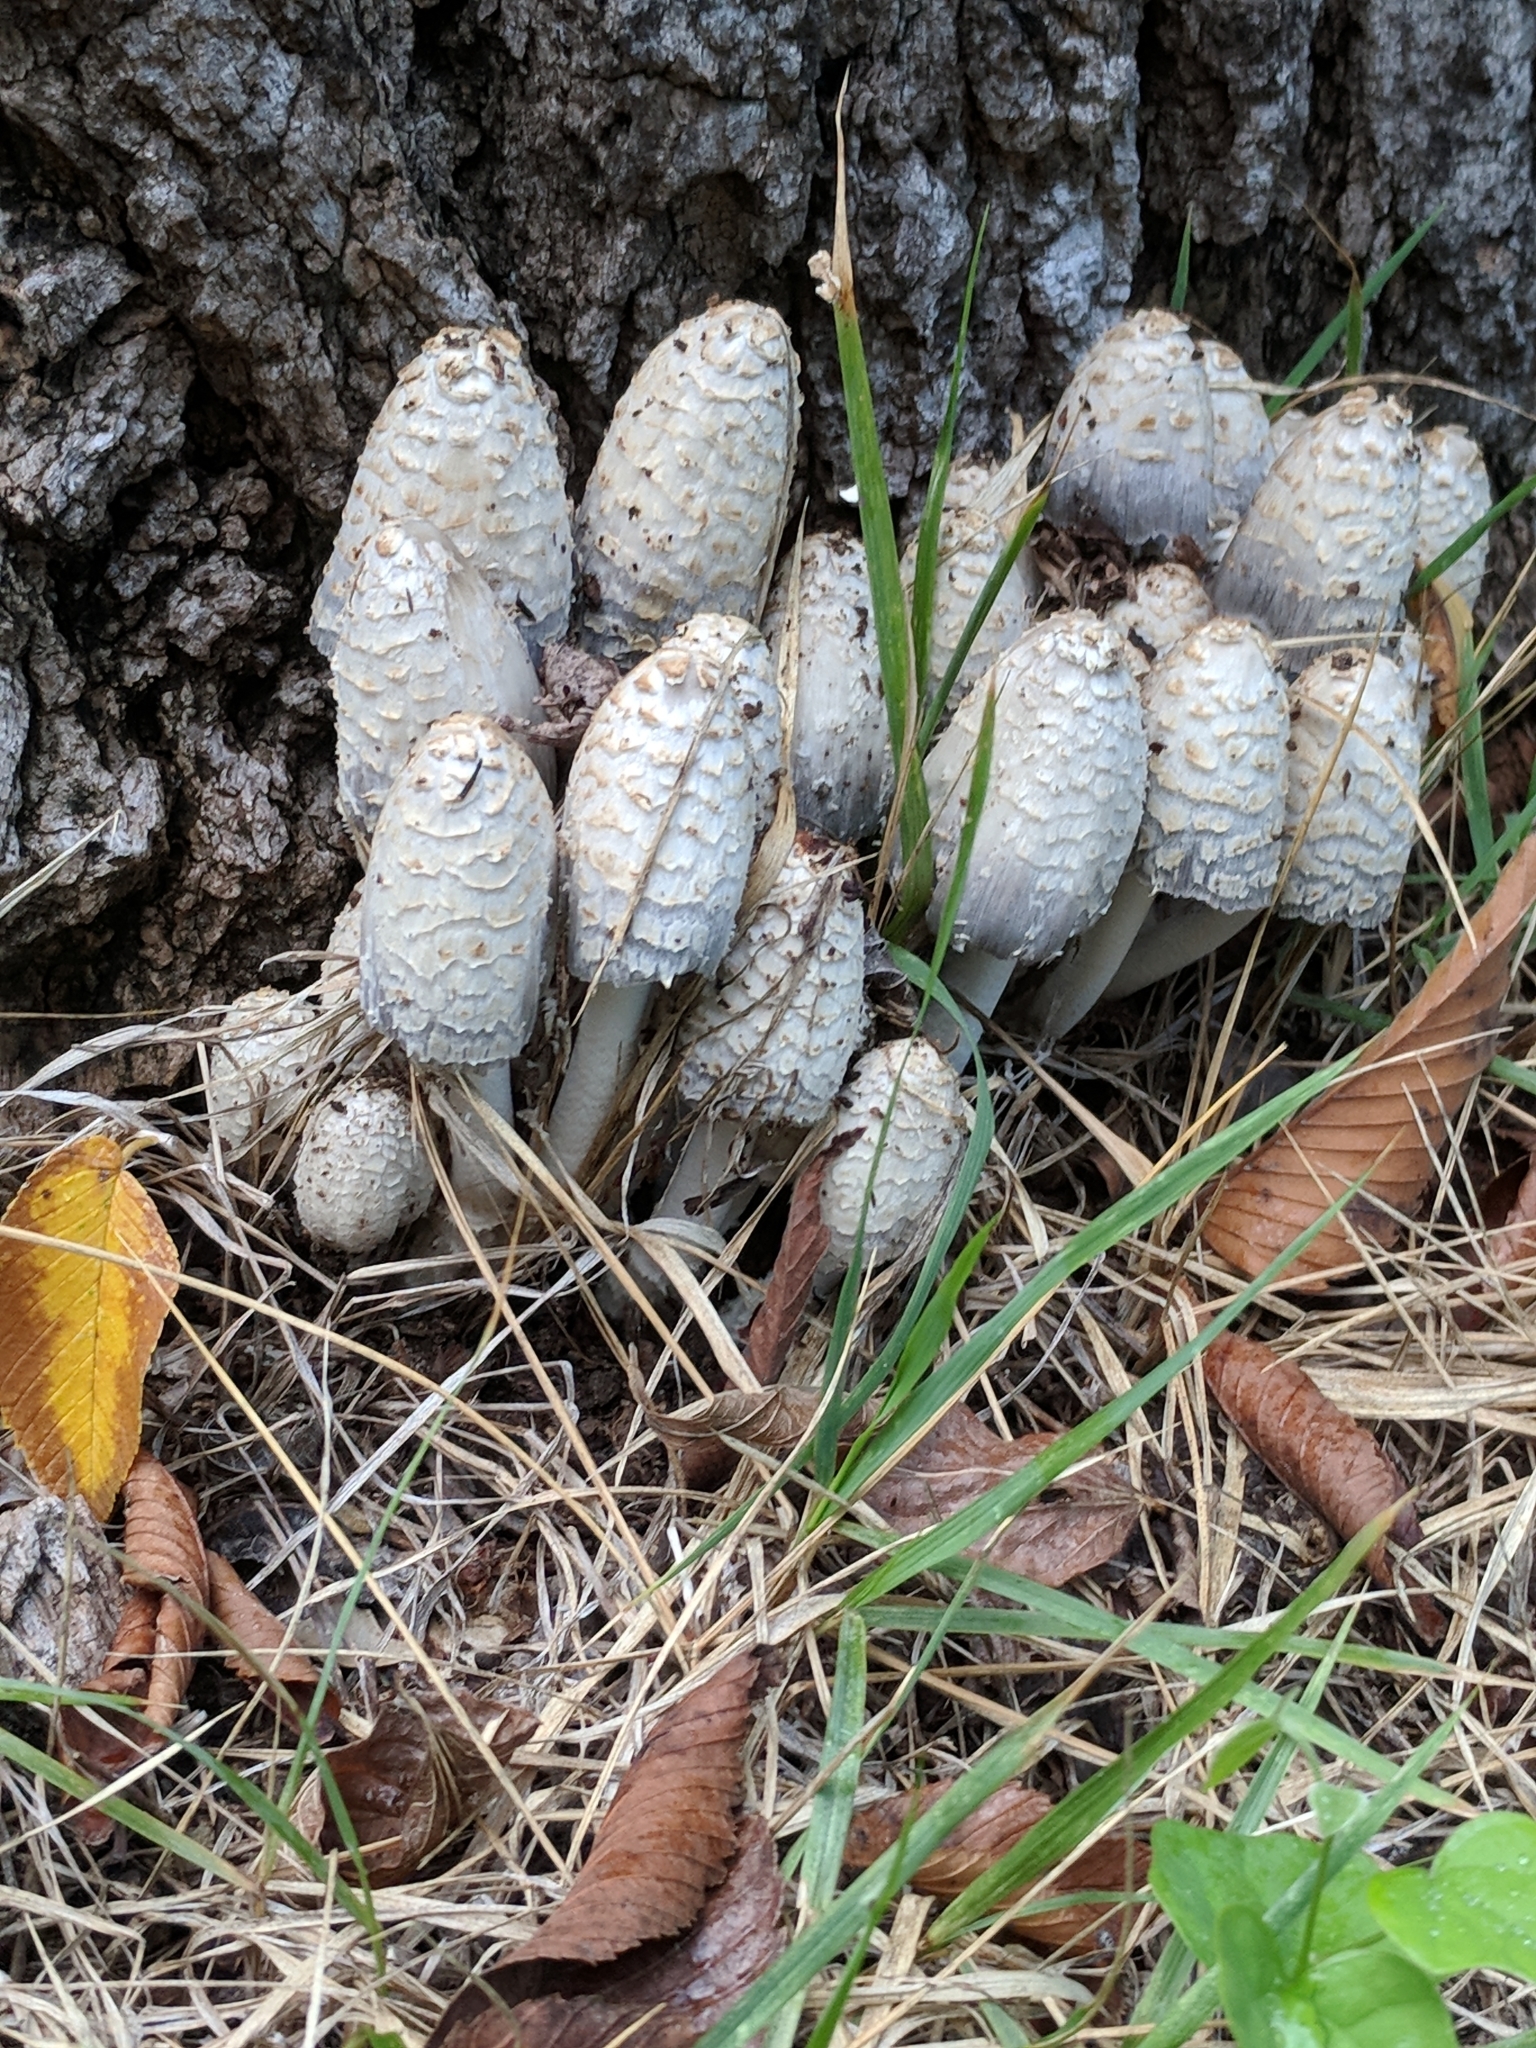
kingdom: Fungi
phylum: Basidiomycota
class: Agaricomycetes
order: Agaricales
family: Psathyrellaceae
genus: Coprinopsis
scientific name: Coprinopsis variegata
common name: Scaly ink cap
